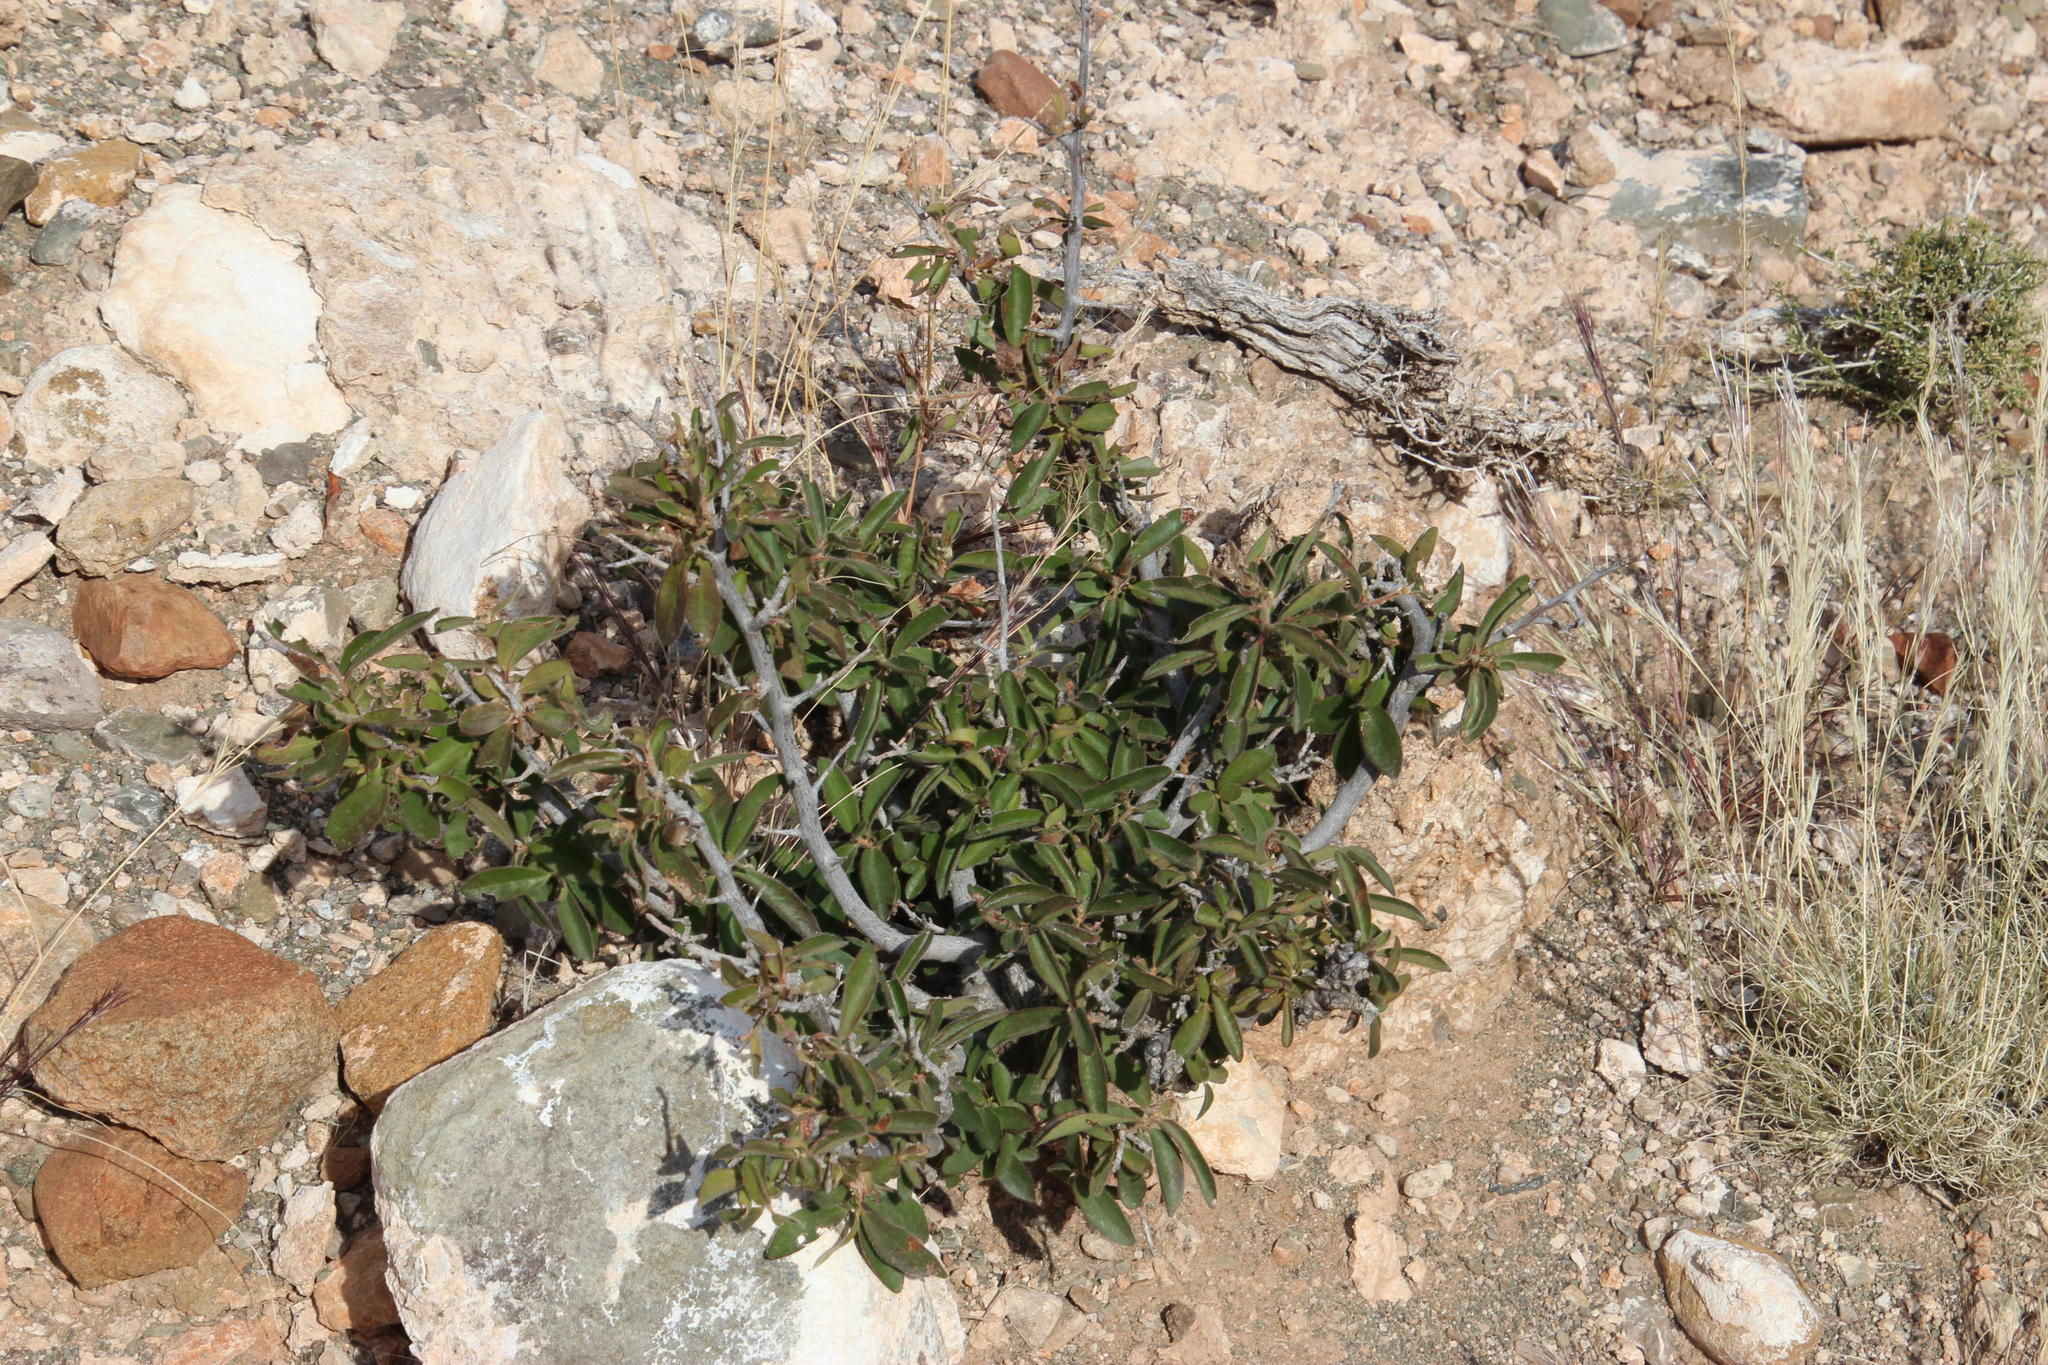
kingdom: Plantae
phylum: Tracheophyta
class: Magnoliopsida
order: Ericales
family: Ebenaceae
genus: Diospyros
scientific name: Diospyros scabrida
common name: Coastal bladder-nut
